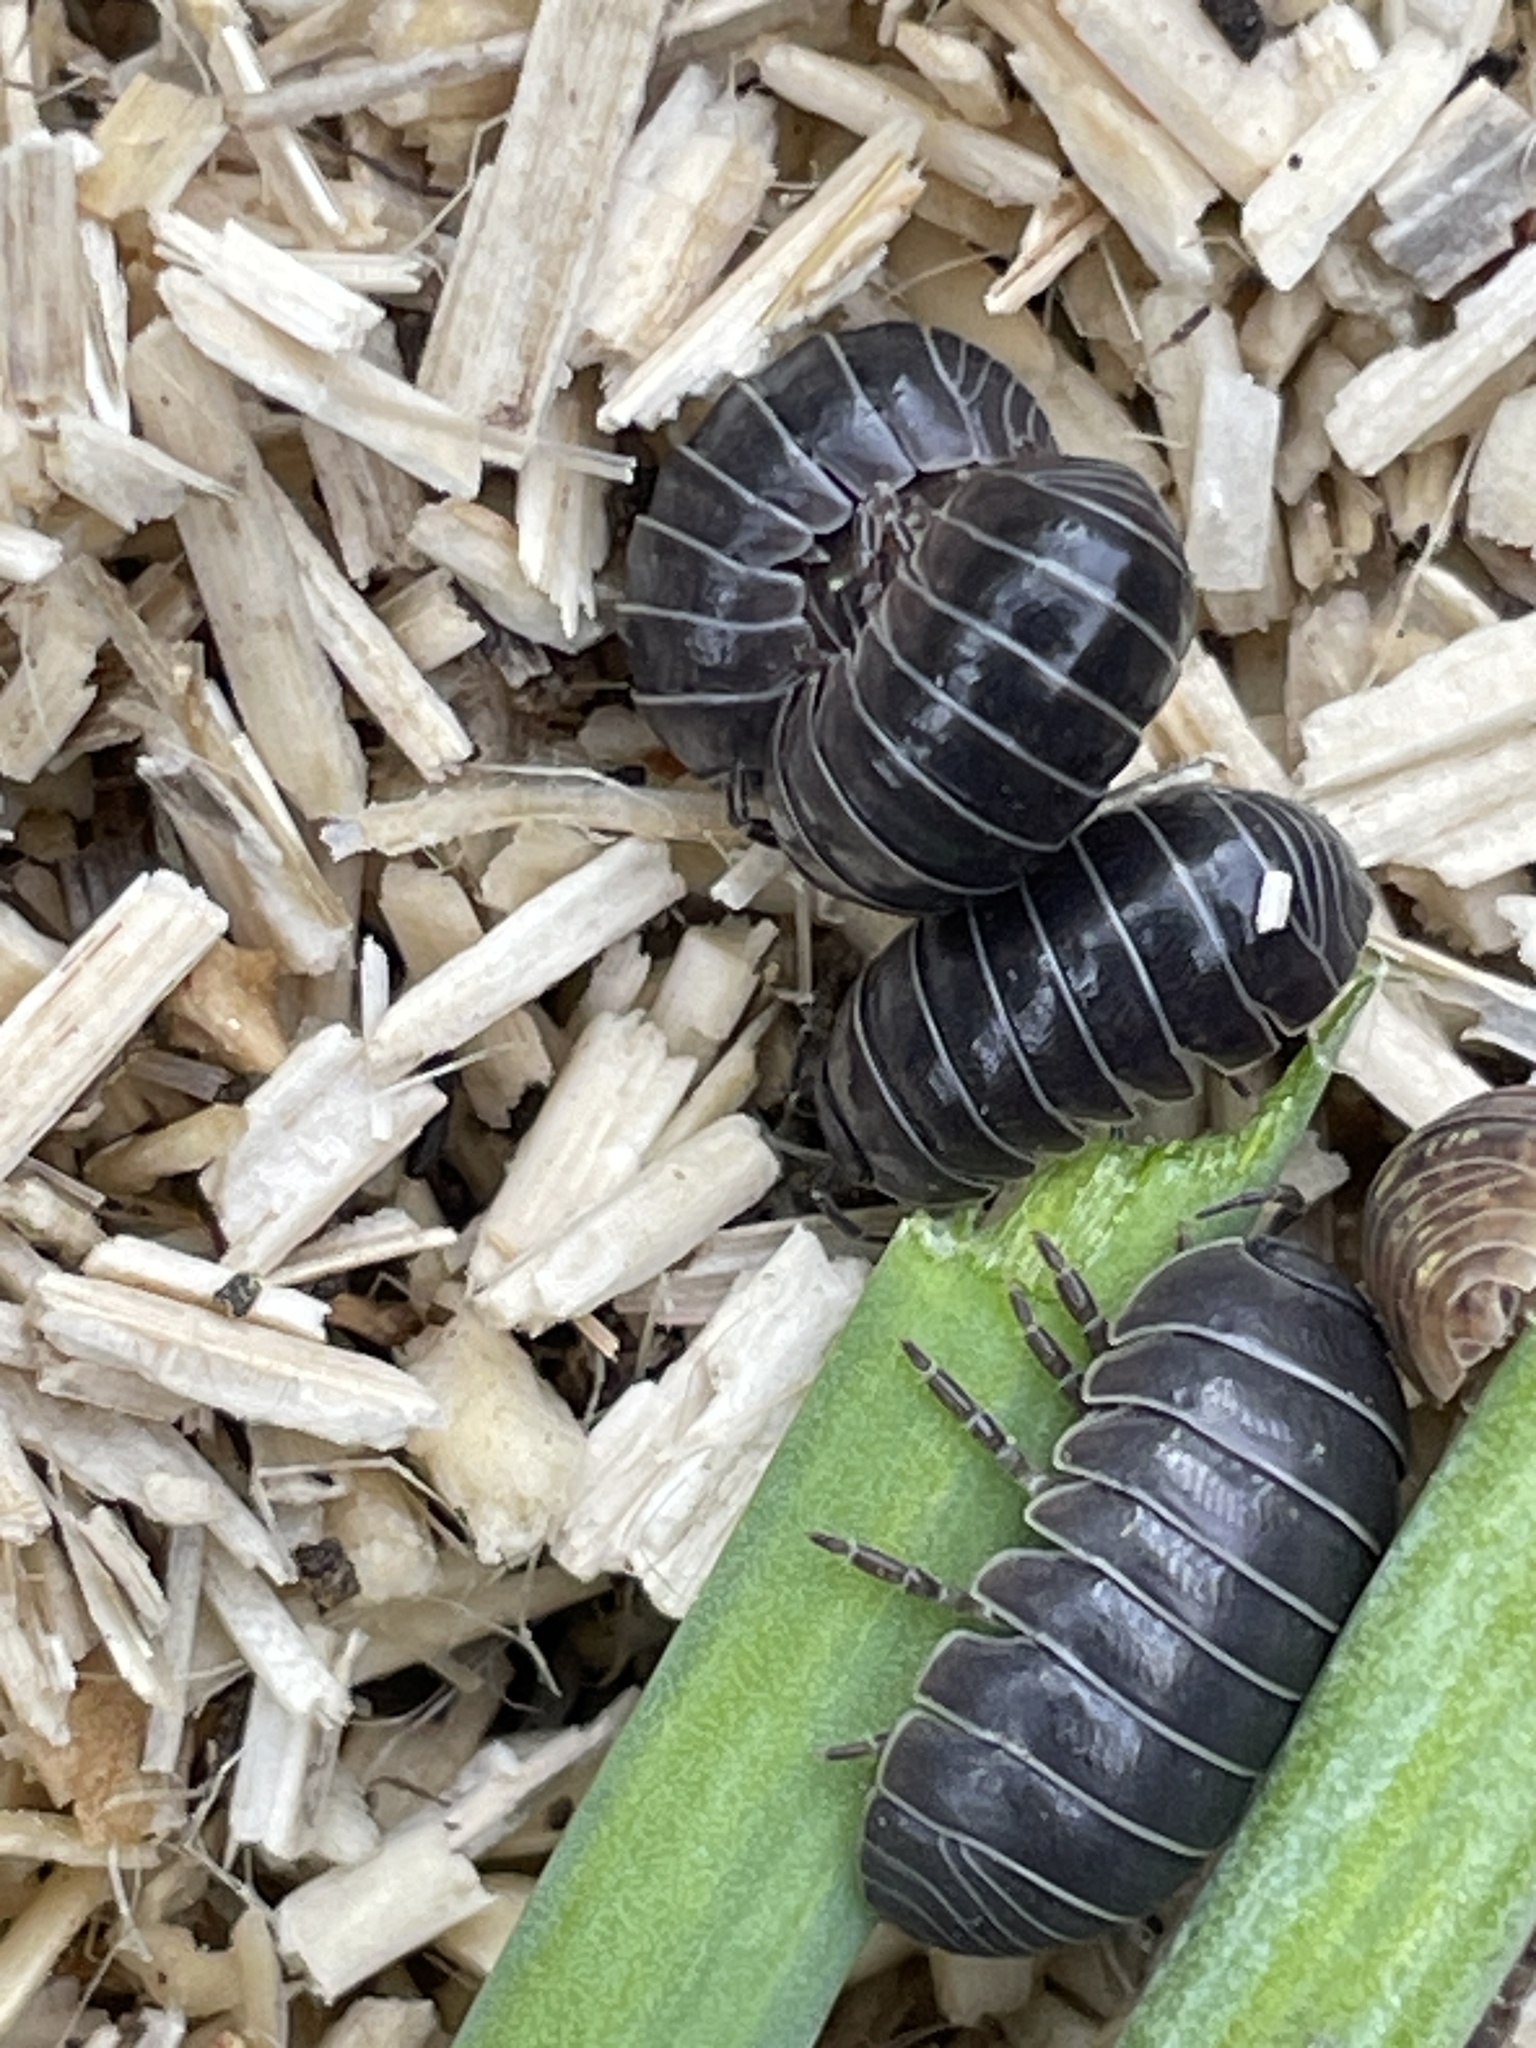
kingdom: Animalia
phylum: Arthropoda
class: Malacostraca
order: Isopoda
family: Armadillidiidae
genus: Armadillidium
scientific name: Armadillidium vulgare
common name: Common pill woodlouse
